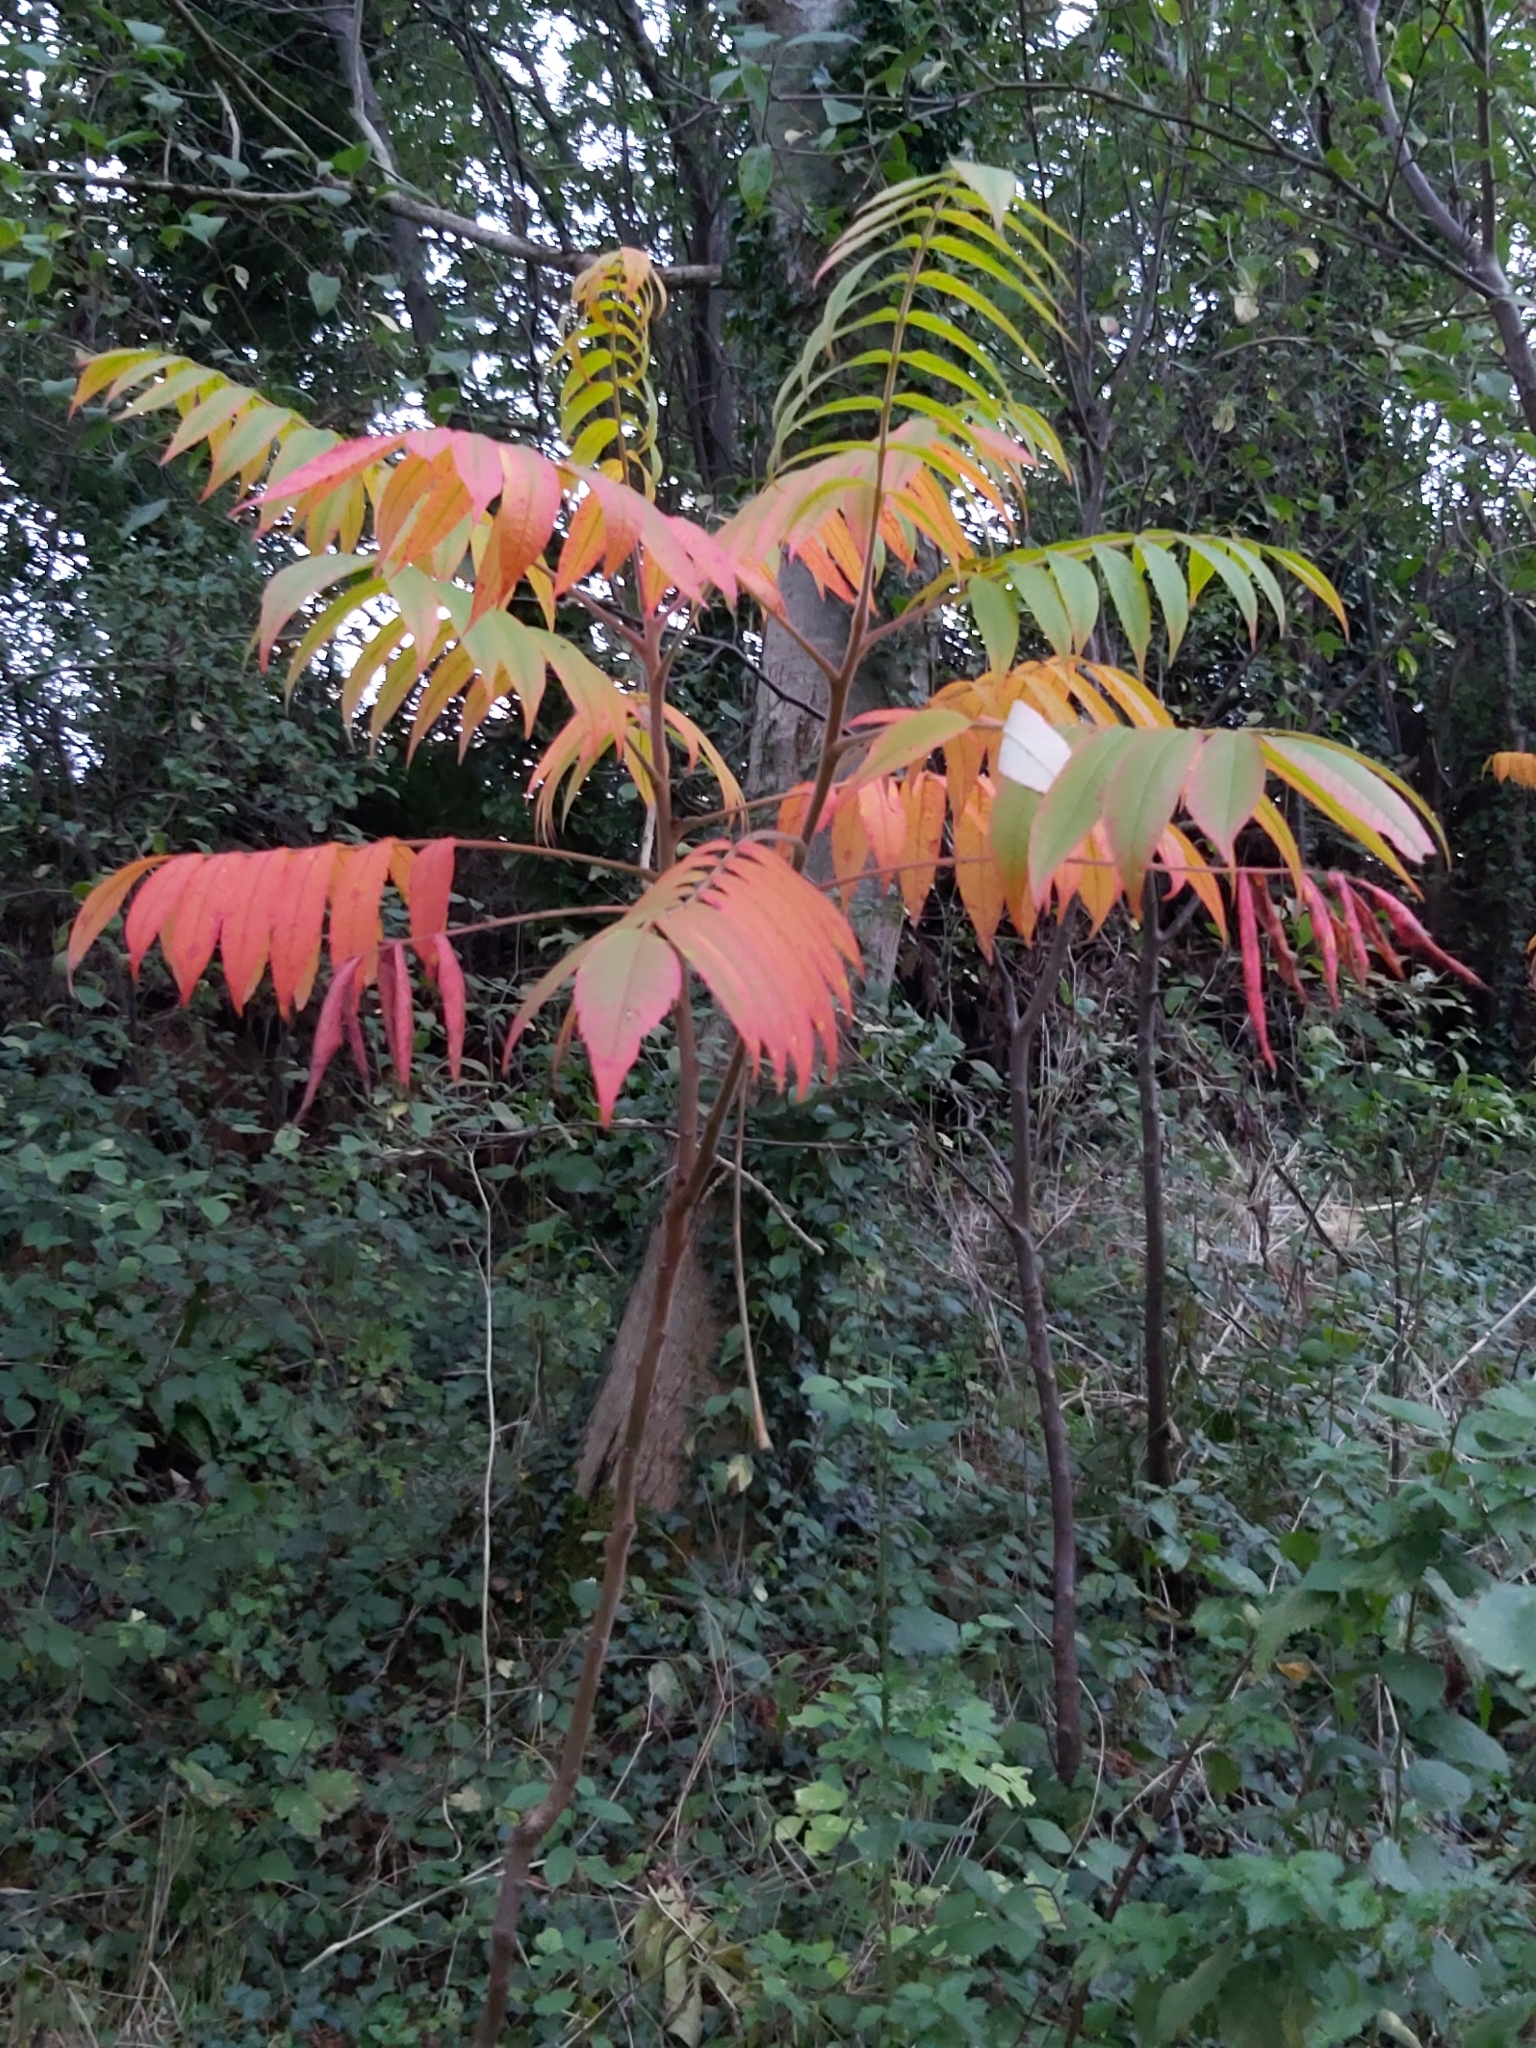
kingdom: Plantae
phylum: Tracheophyta
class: Magnoliopsida
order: Sapindales
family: Anacardiaceae
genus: Rhus
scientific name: Rhus typhina
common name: Staghorn sumac
